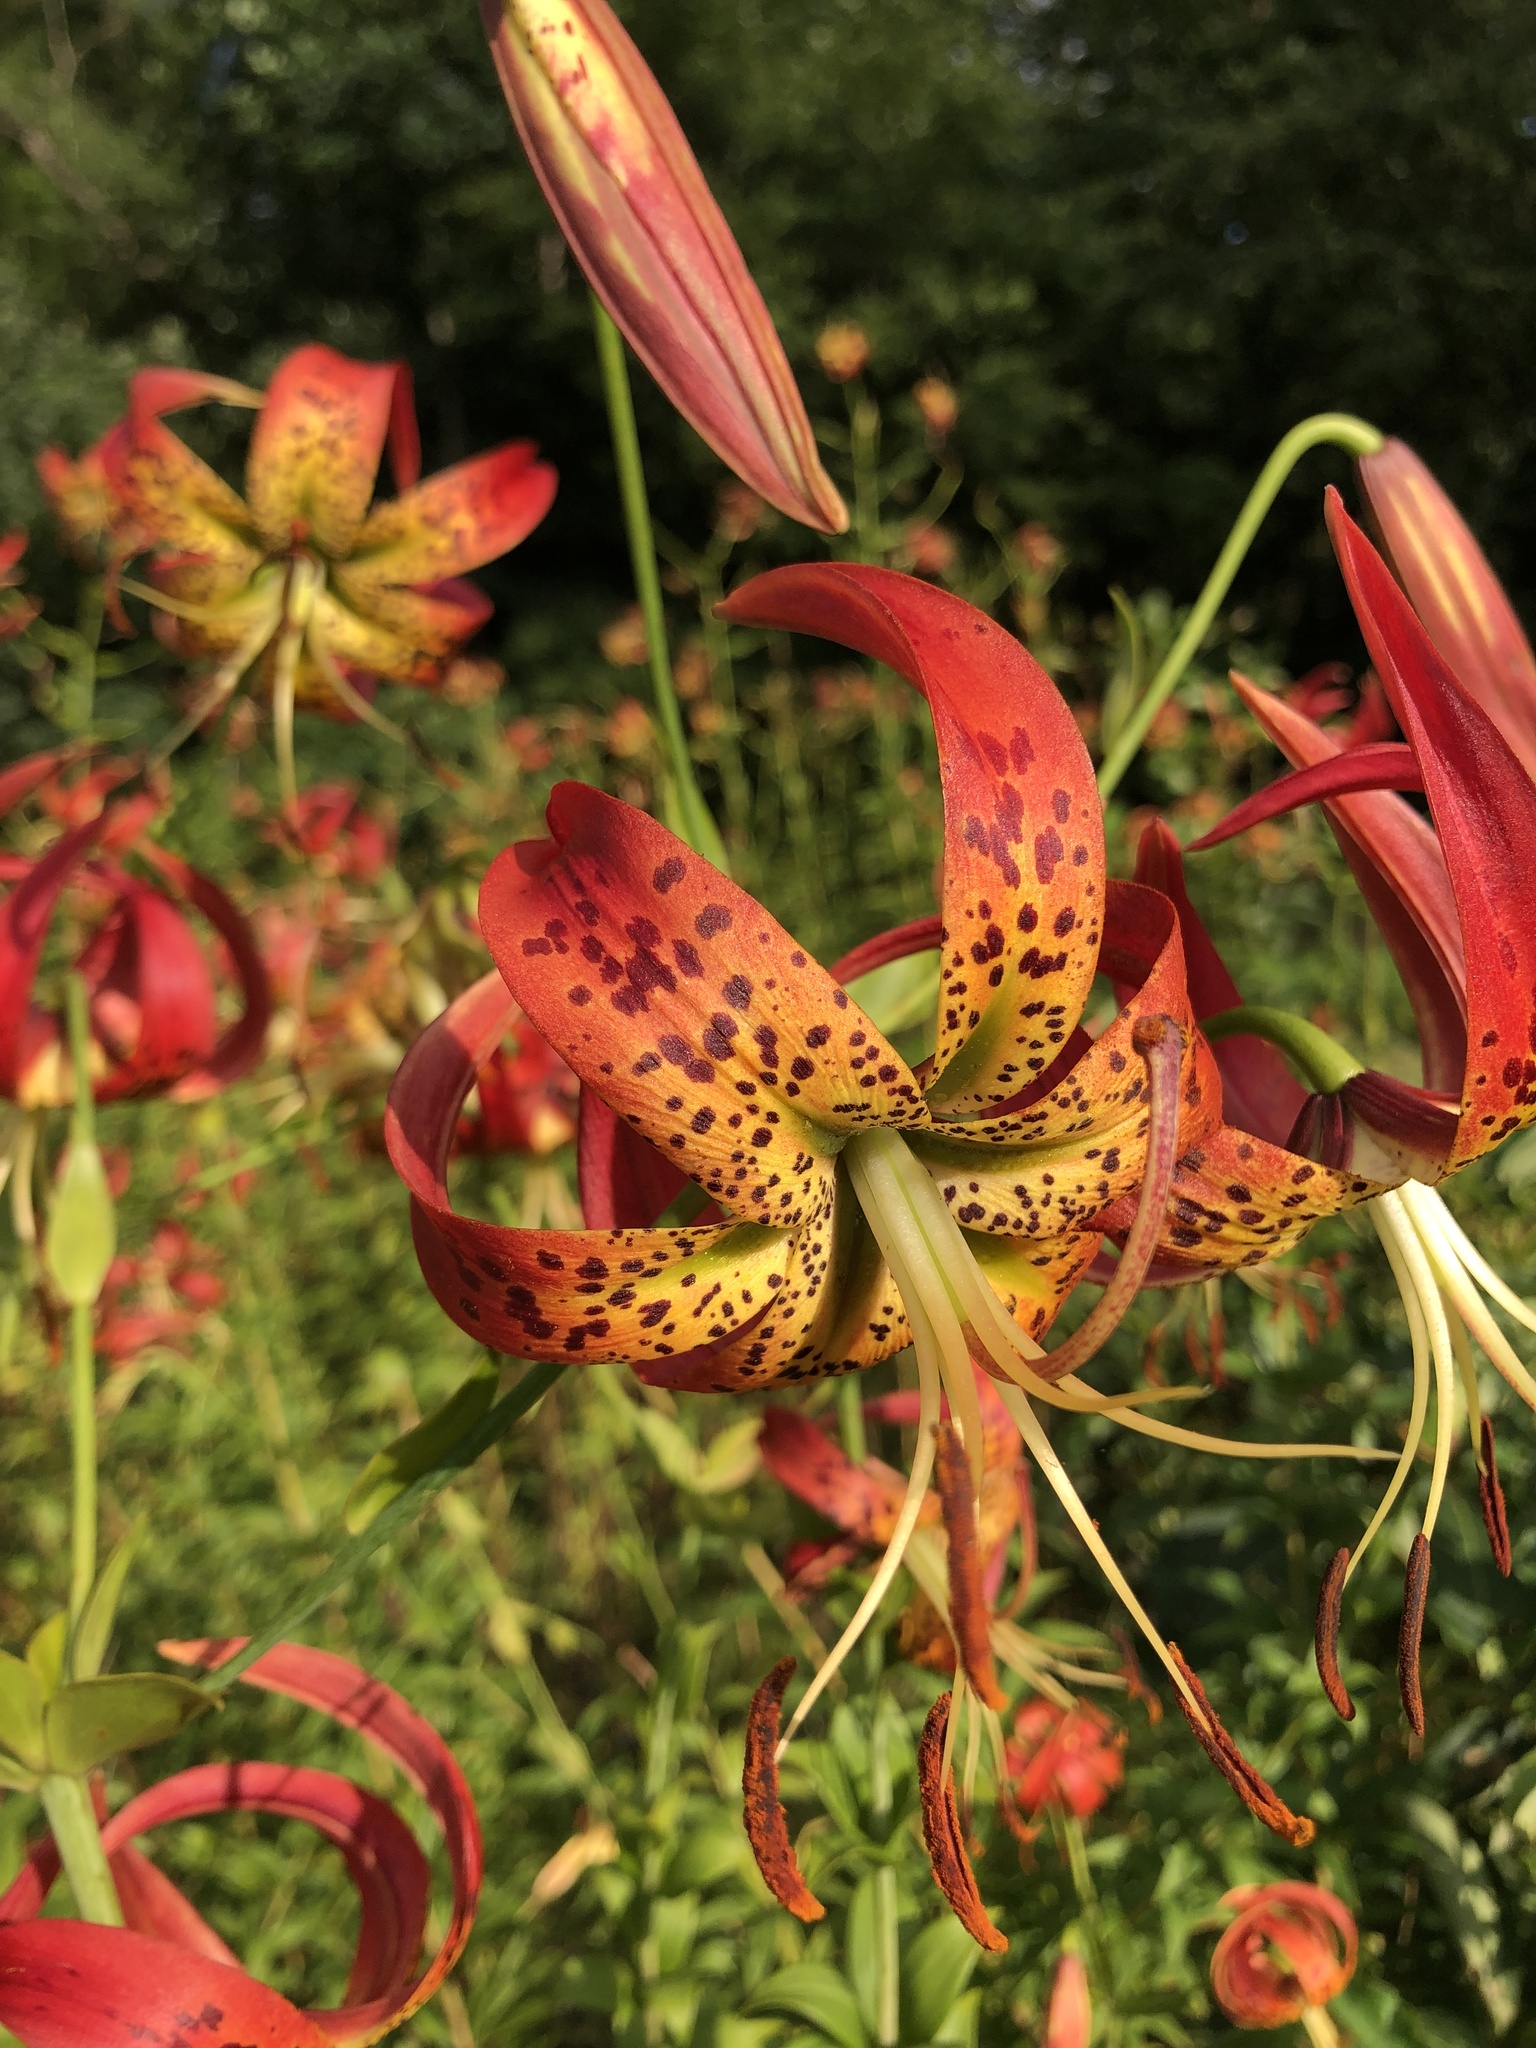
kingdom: Plantae
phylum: Tracheophyta
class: Liliopsida
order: Liliales
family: Liliaceae
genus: Lilium
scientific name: Lilium superbum
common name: American turk's-cap lily
